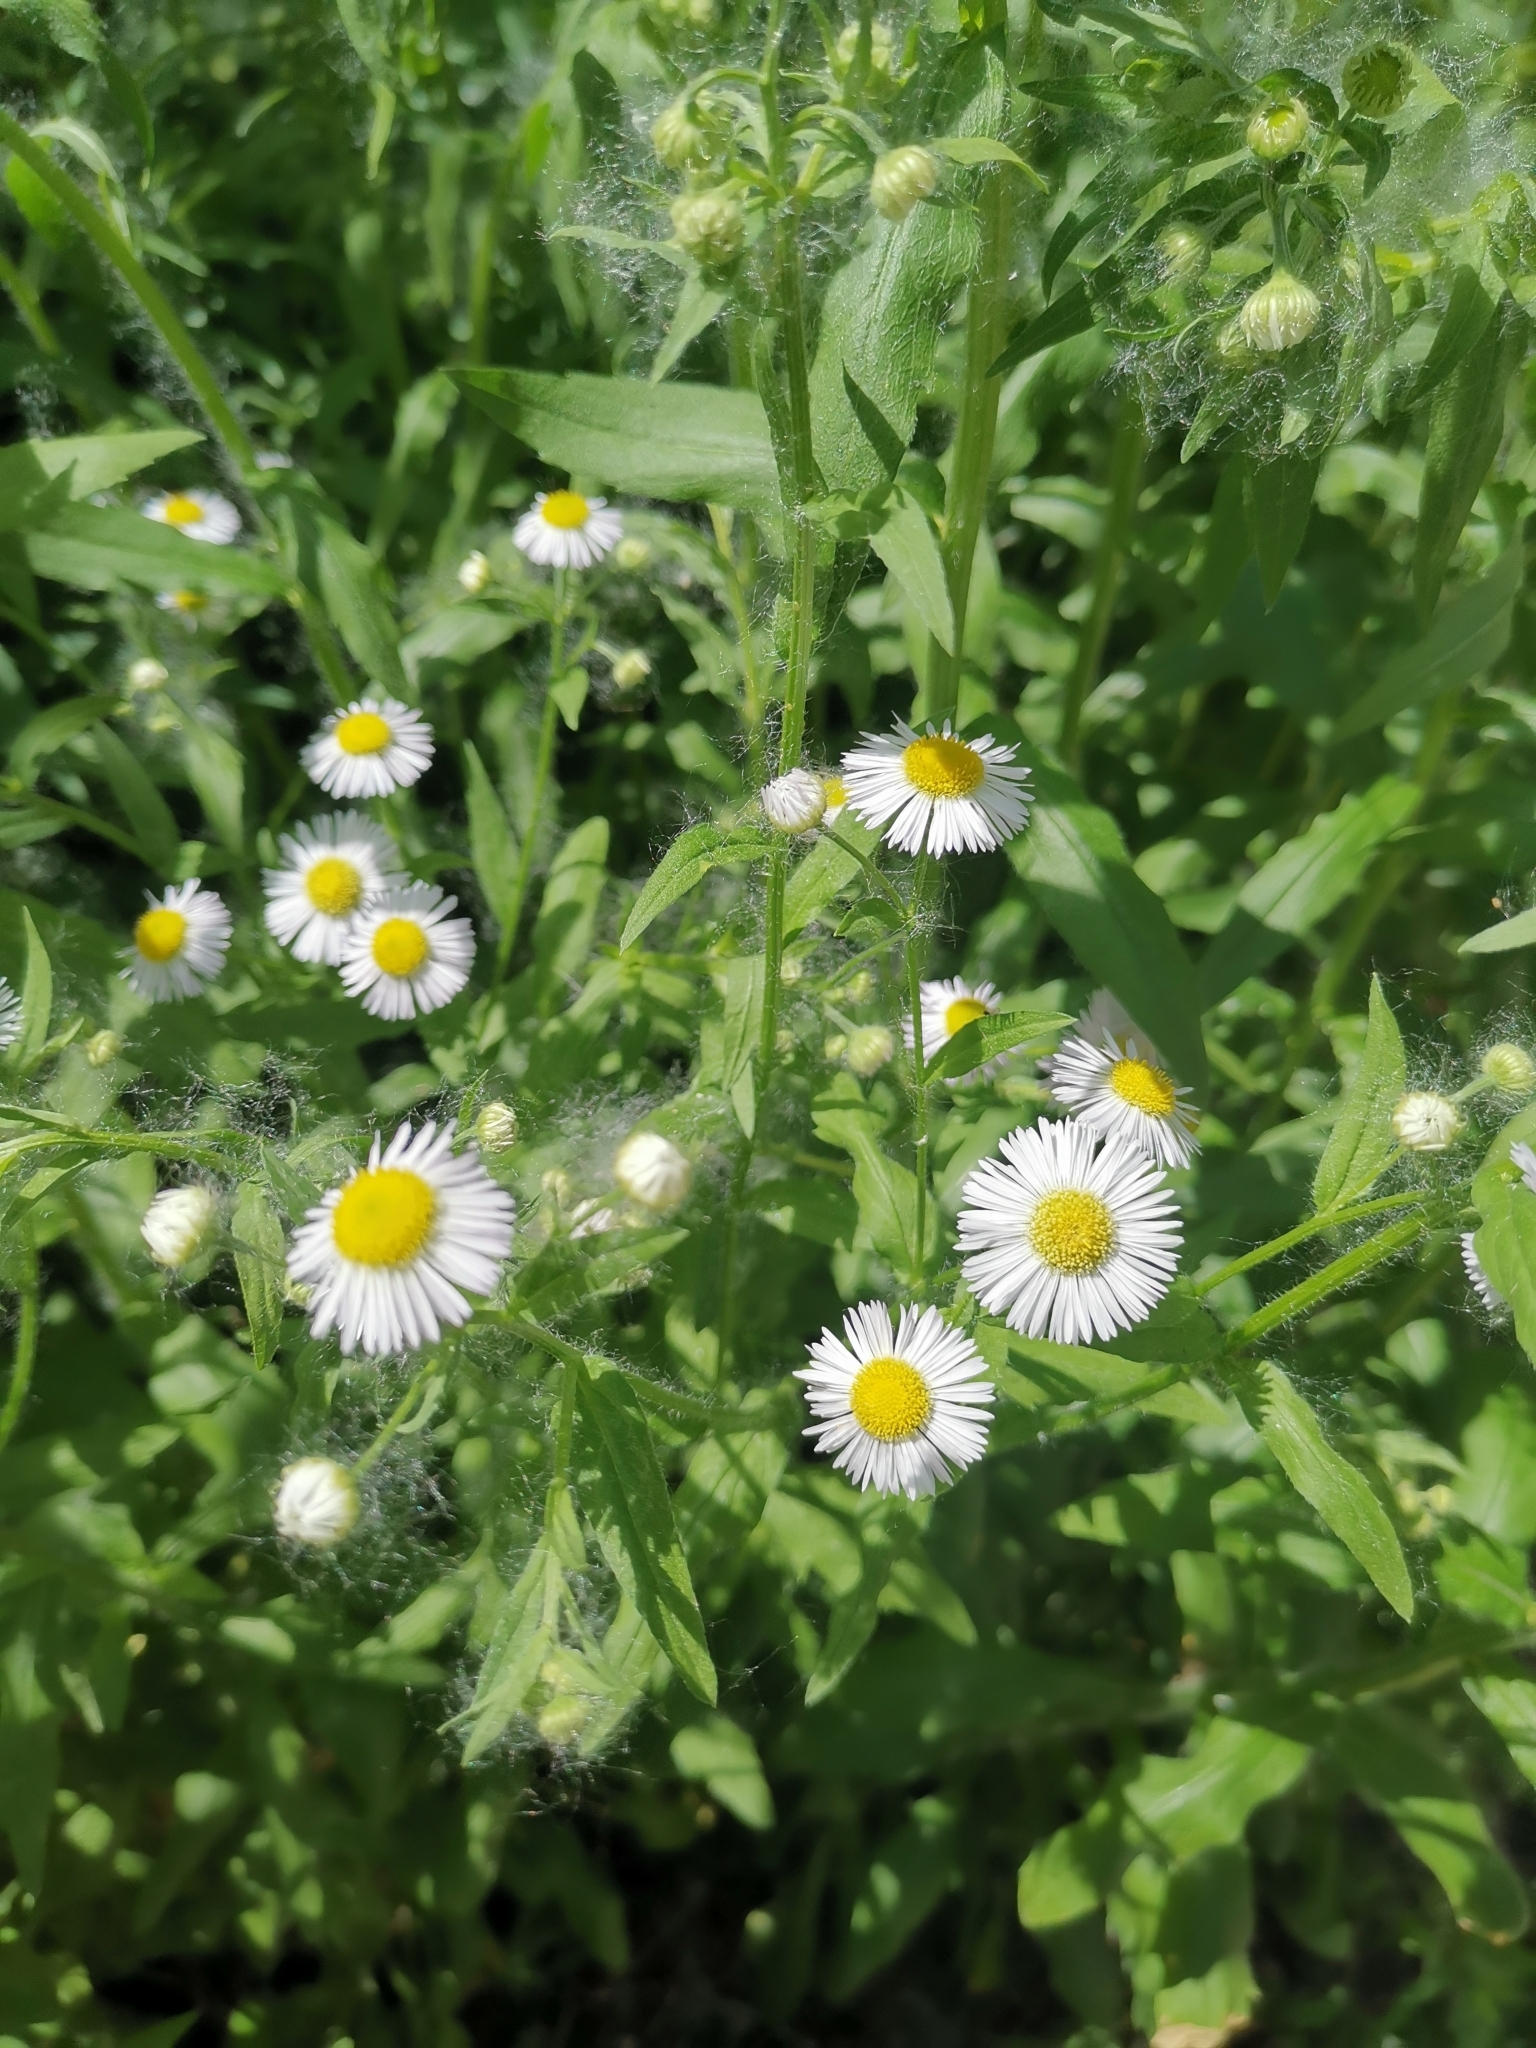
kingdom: Plantae
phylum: Tracheophyta
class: Magnoliopsida
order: Asterales
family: Asteraceae
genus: Erigeron
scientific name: Erigeron annuus
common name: Tall fleabane
